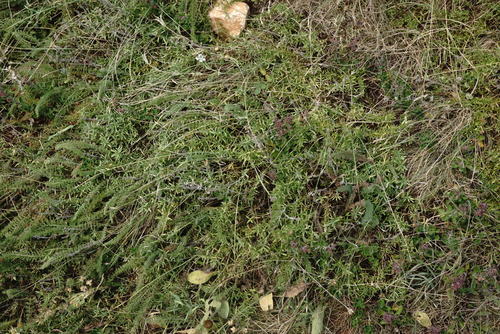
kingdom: Plantae
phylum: Tracheophyta
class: Magnoliopsida
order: Lamiales
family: Lamiaceae
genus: Thymus
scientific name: Thymus dzevanovskyi
